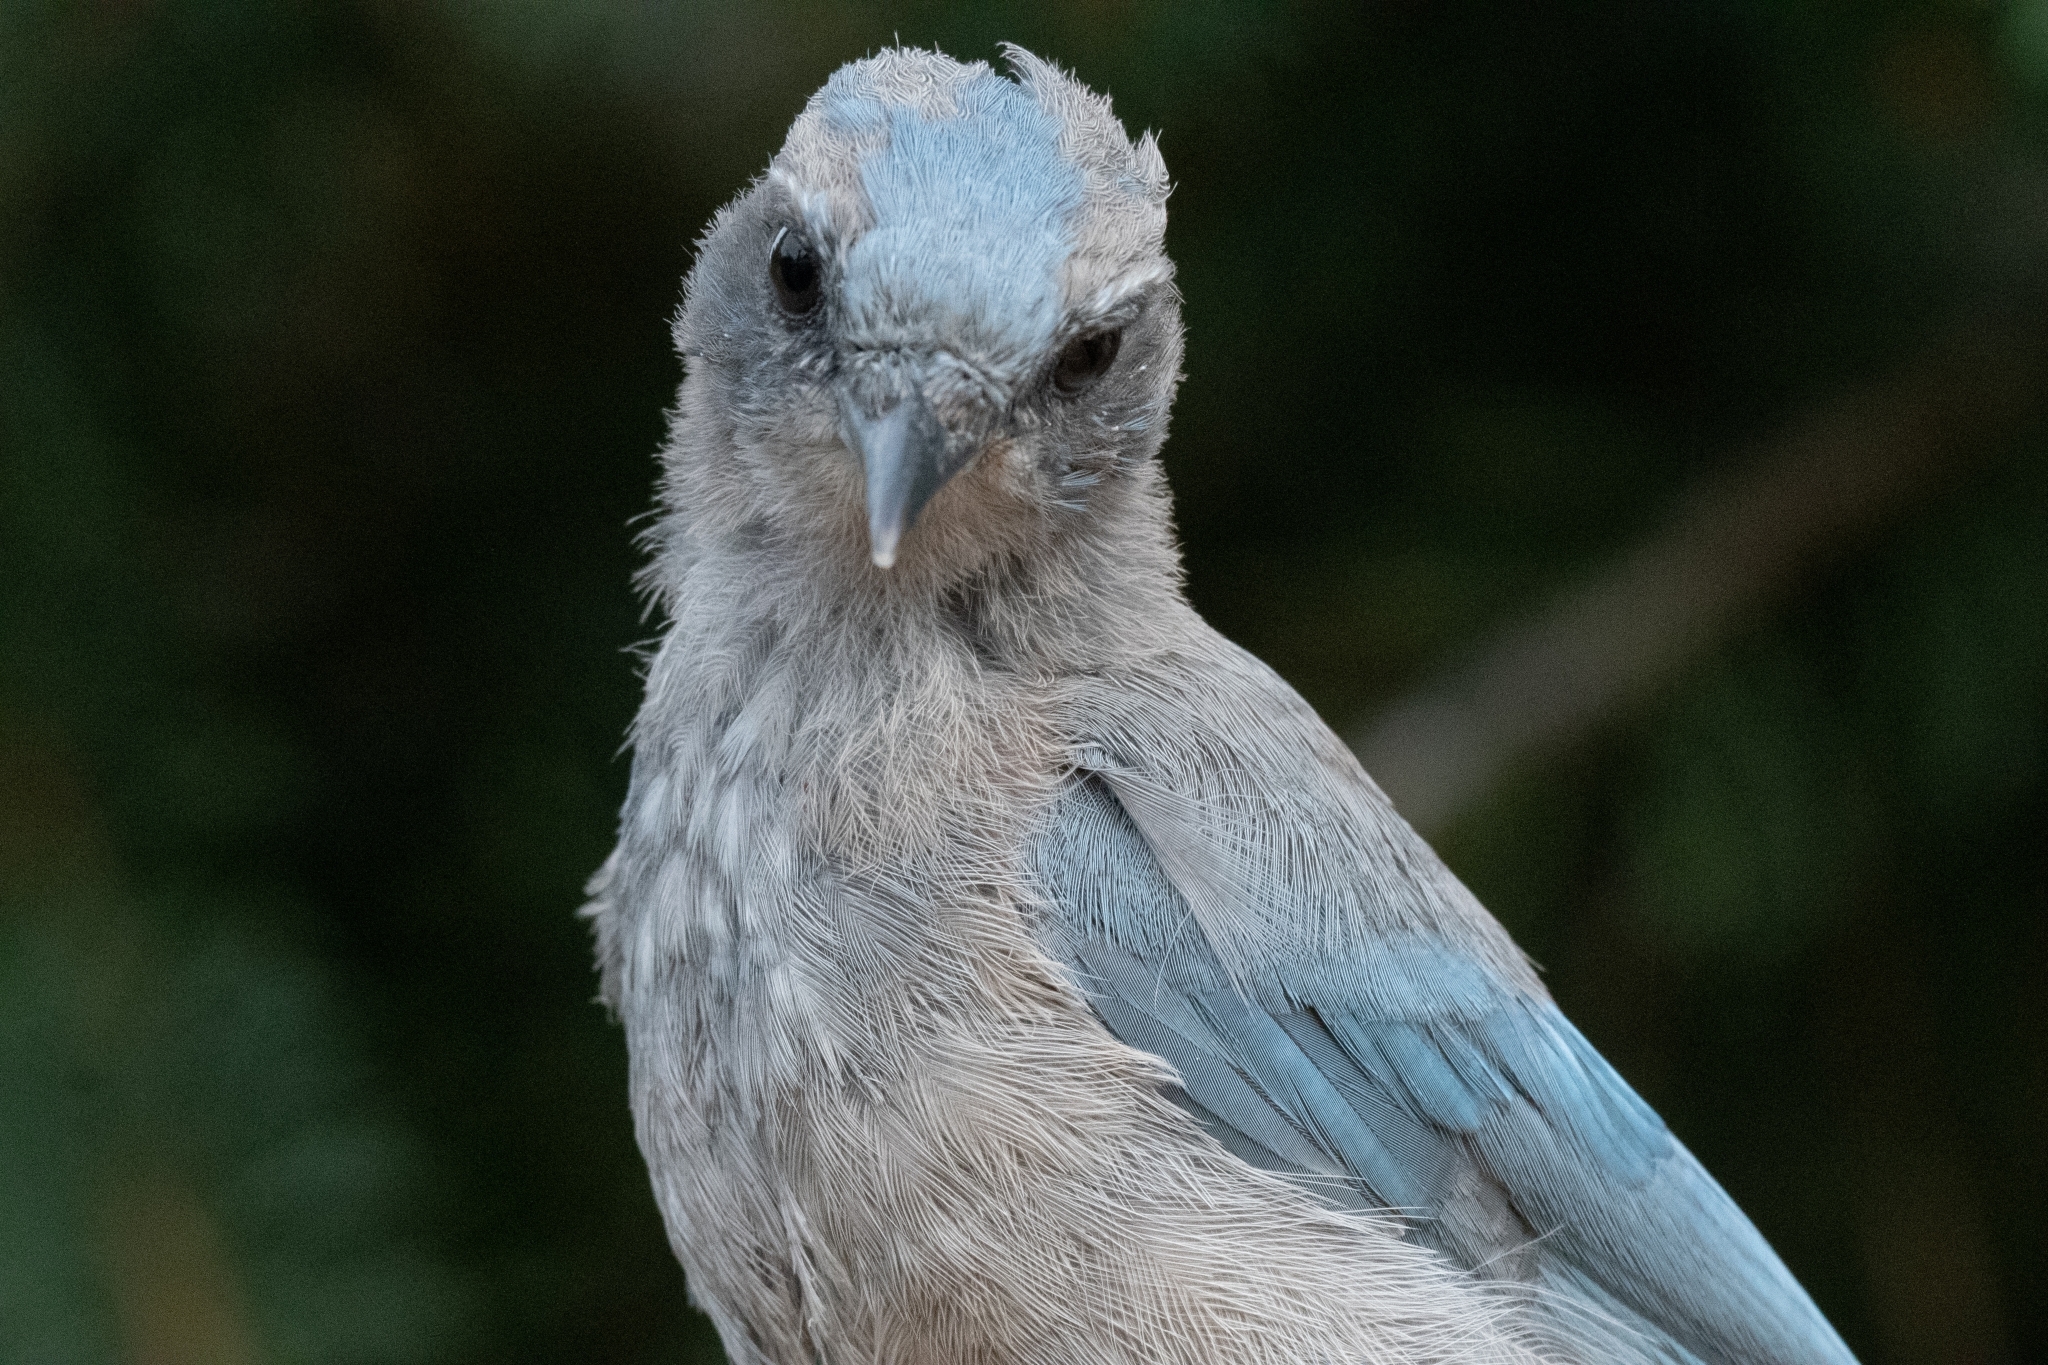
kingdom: Animalia
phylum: Chordata
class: Aves
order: Passeriformes
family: Corvidae
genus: Aphelocoma
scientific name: Aphelocoma woodhouseii
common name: Woodhouse's scrub-jay
